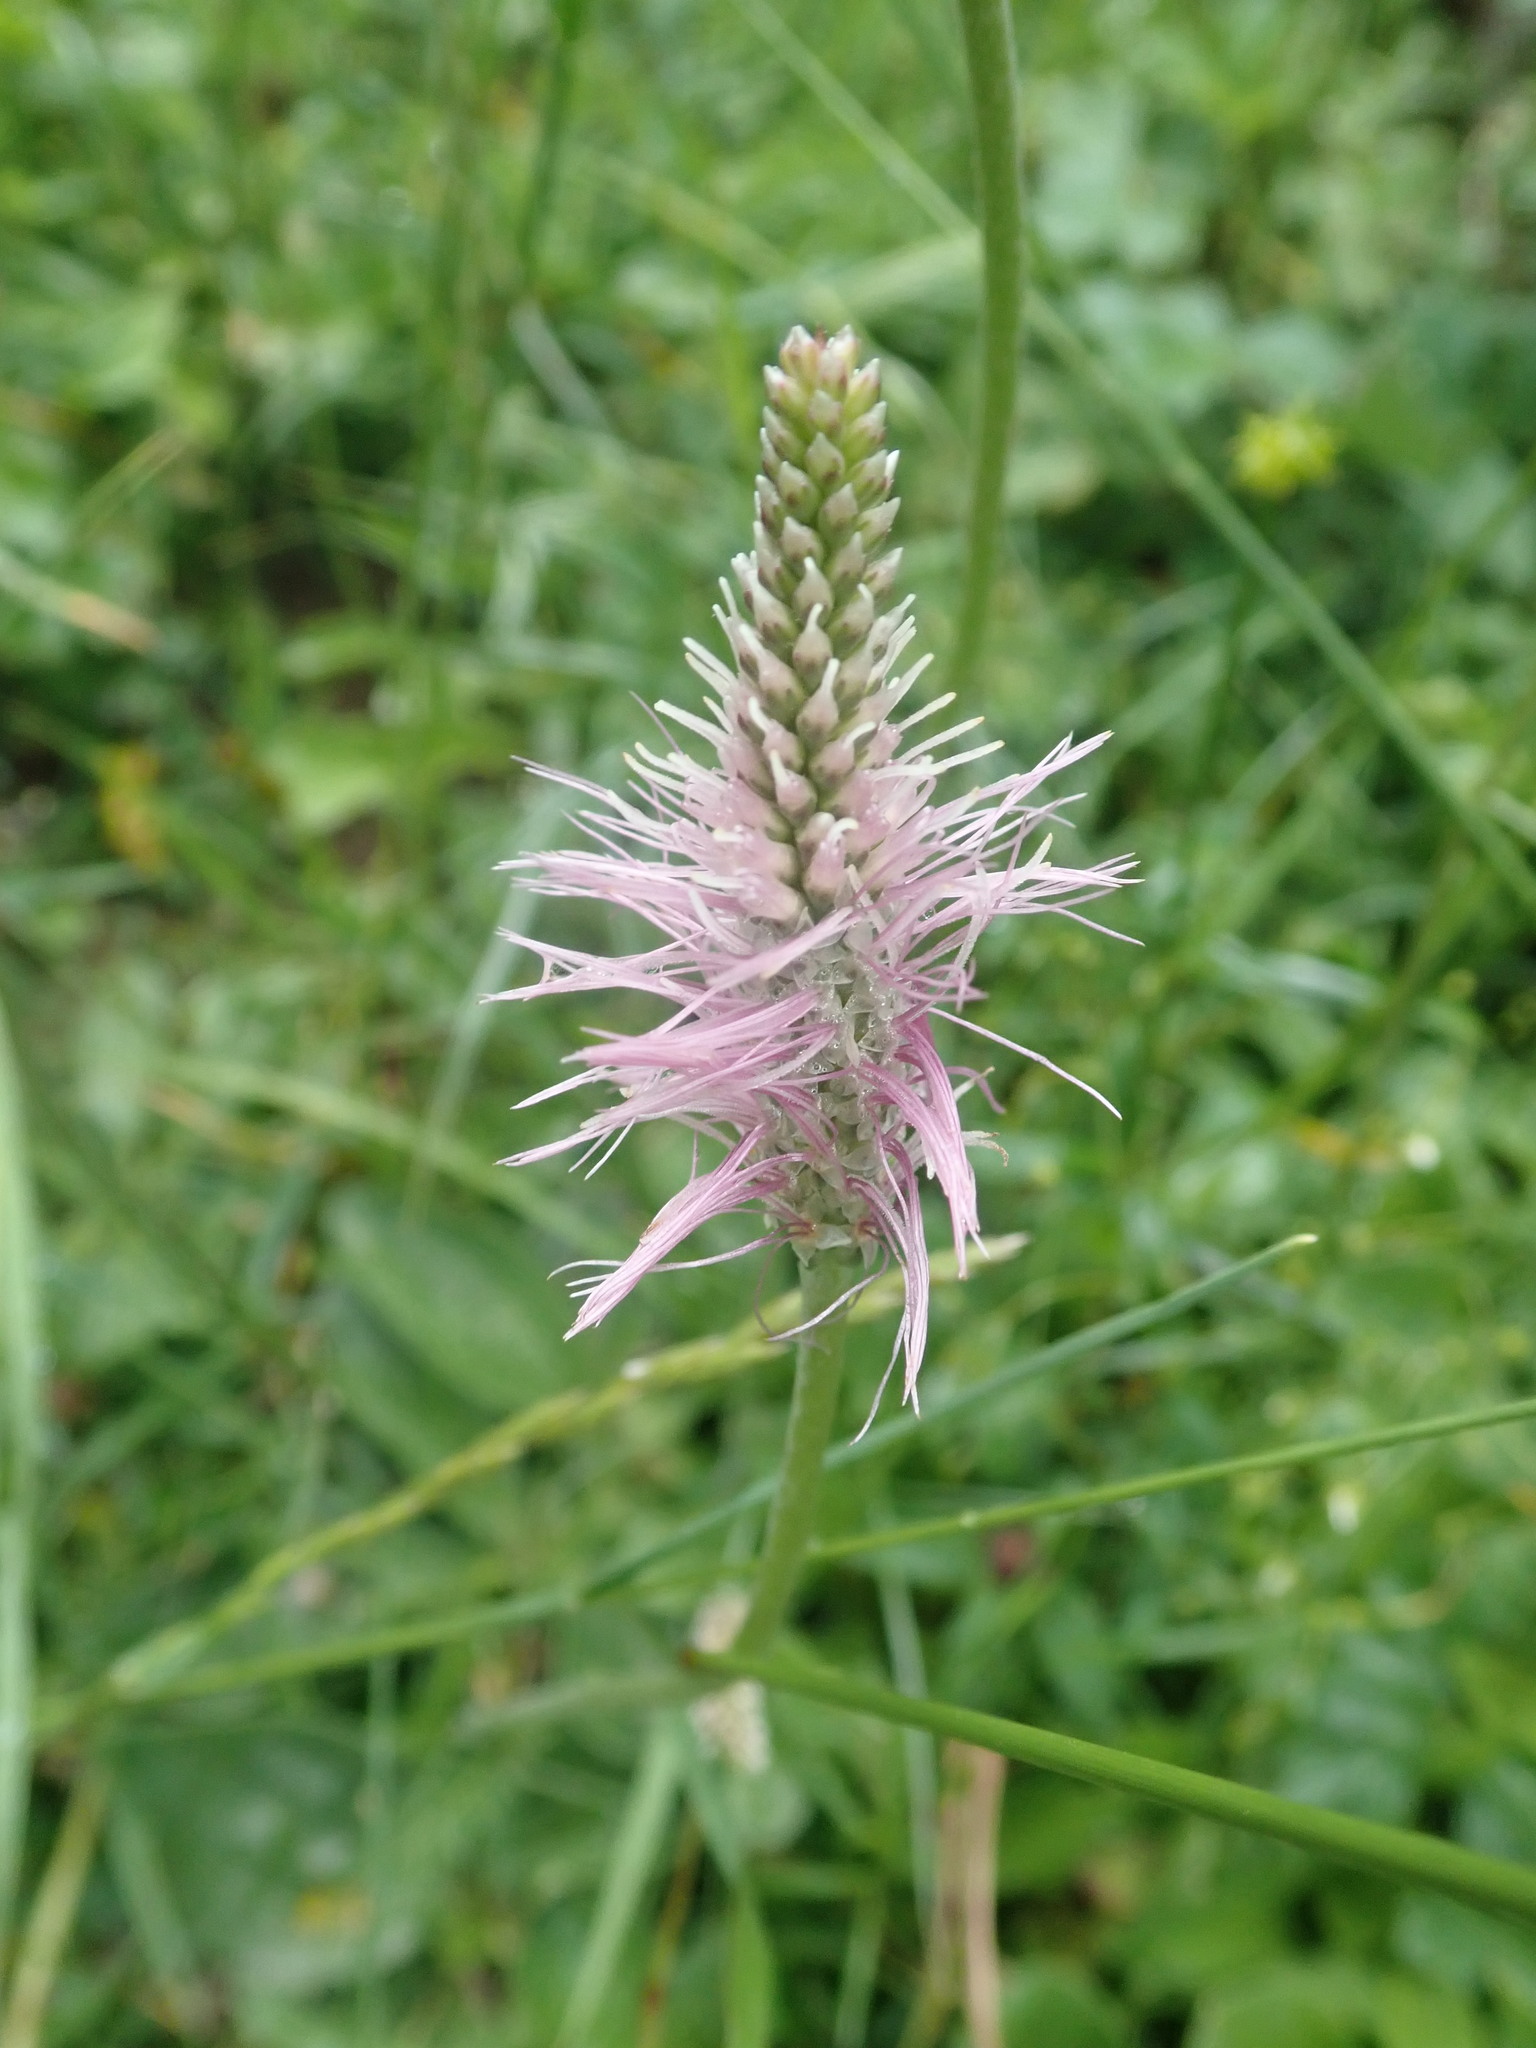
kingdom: Plantae
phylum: Tracheophyta
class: Magnoliopsida
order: Lamiales
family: Plantaginaceae
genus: Plantago
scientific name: Plantago media
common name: Hoary plantain
